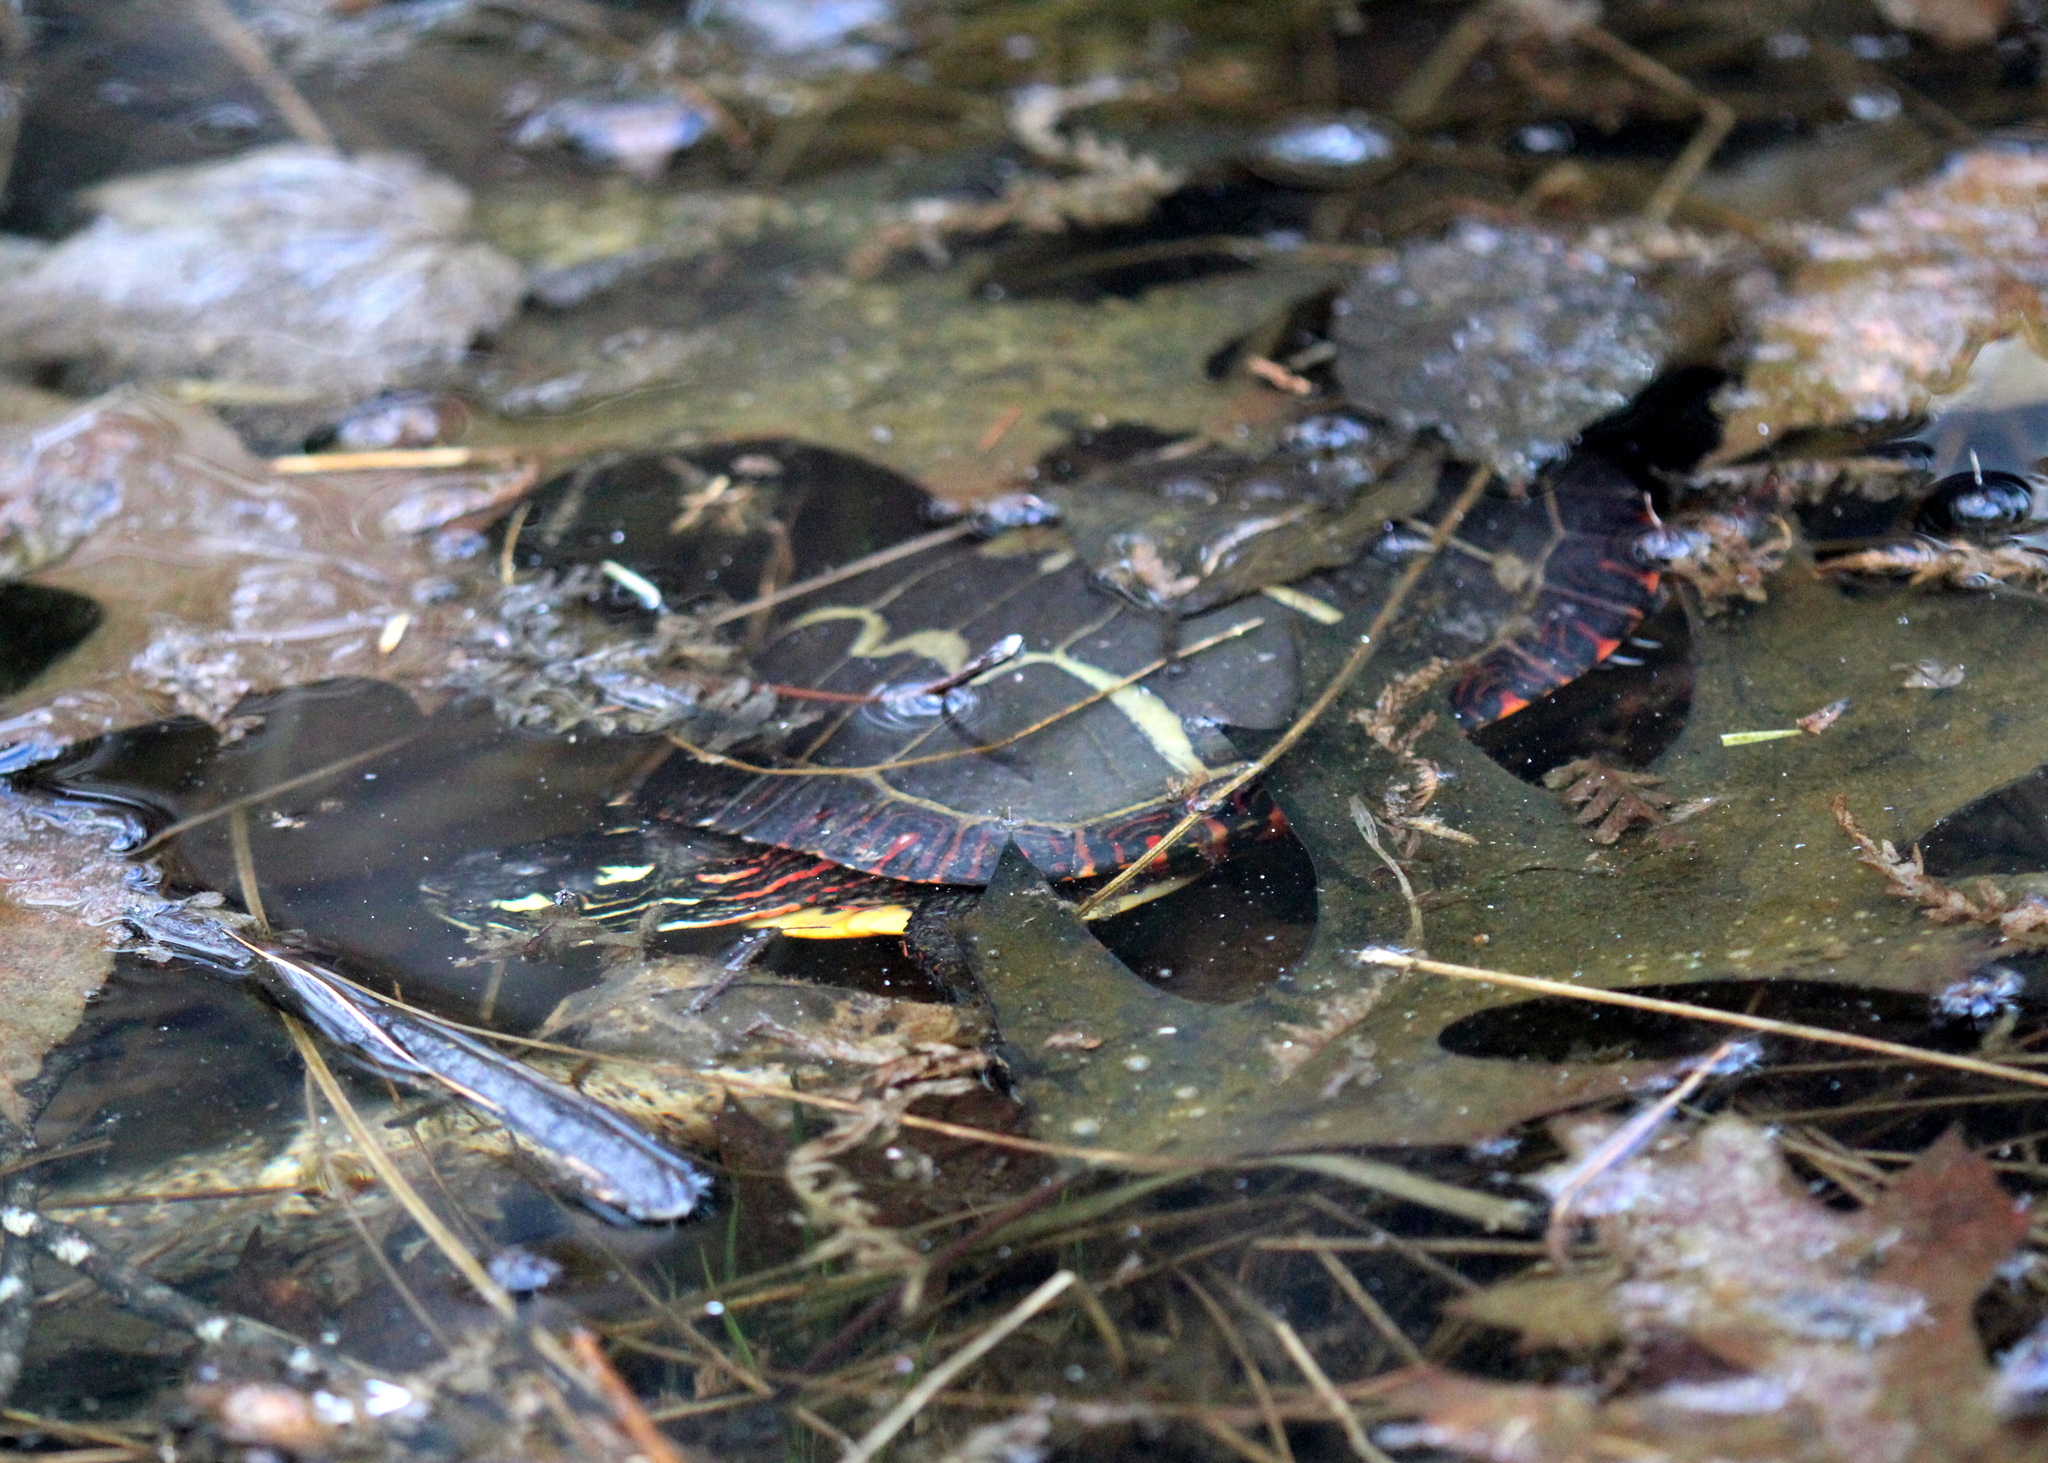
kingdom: Animalia
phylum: Chordata
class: Testudines
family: Emydidae
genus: Chrysemys
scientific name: Chrysemys picta
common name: Painted turtle
